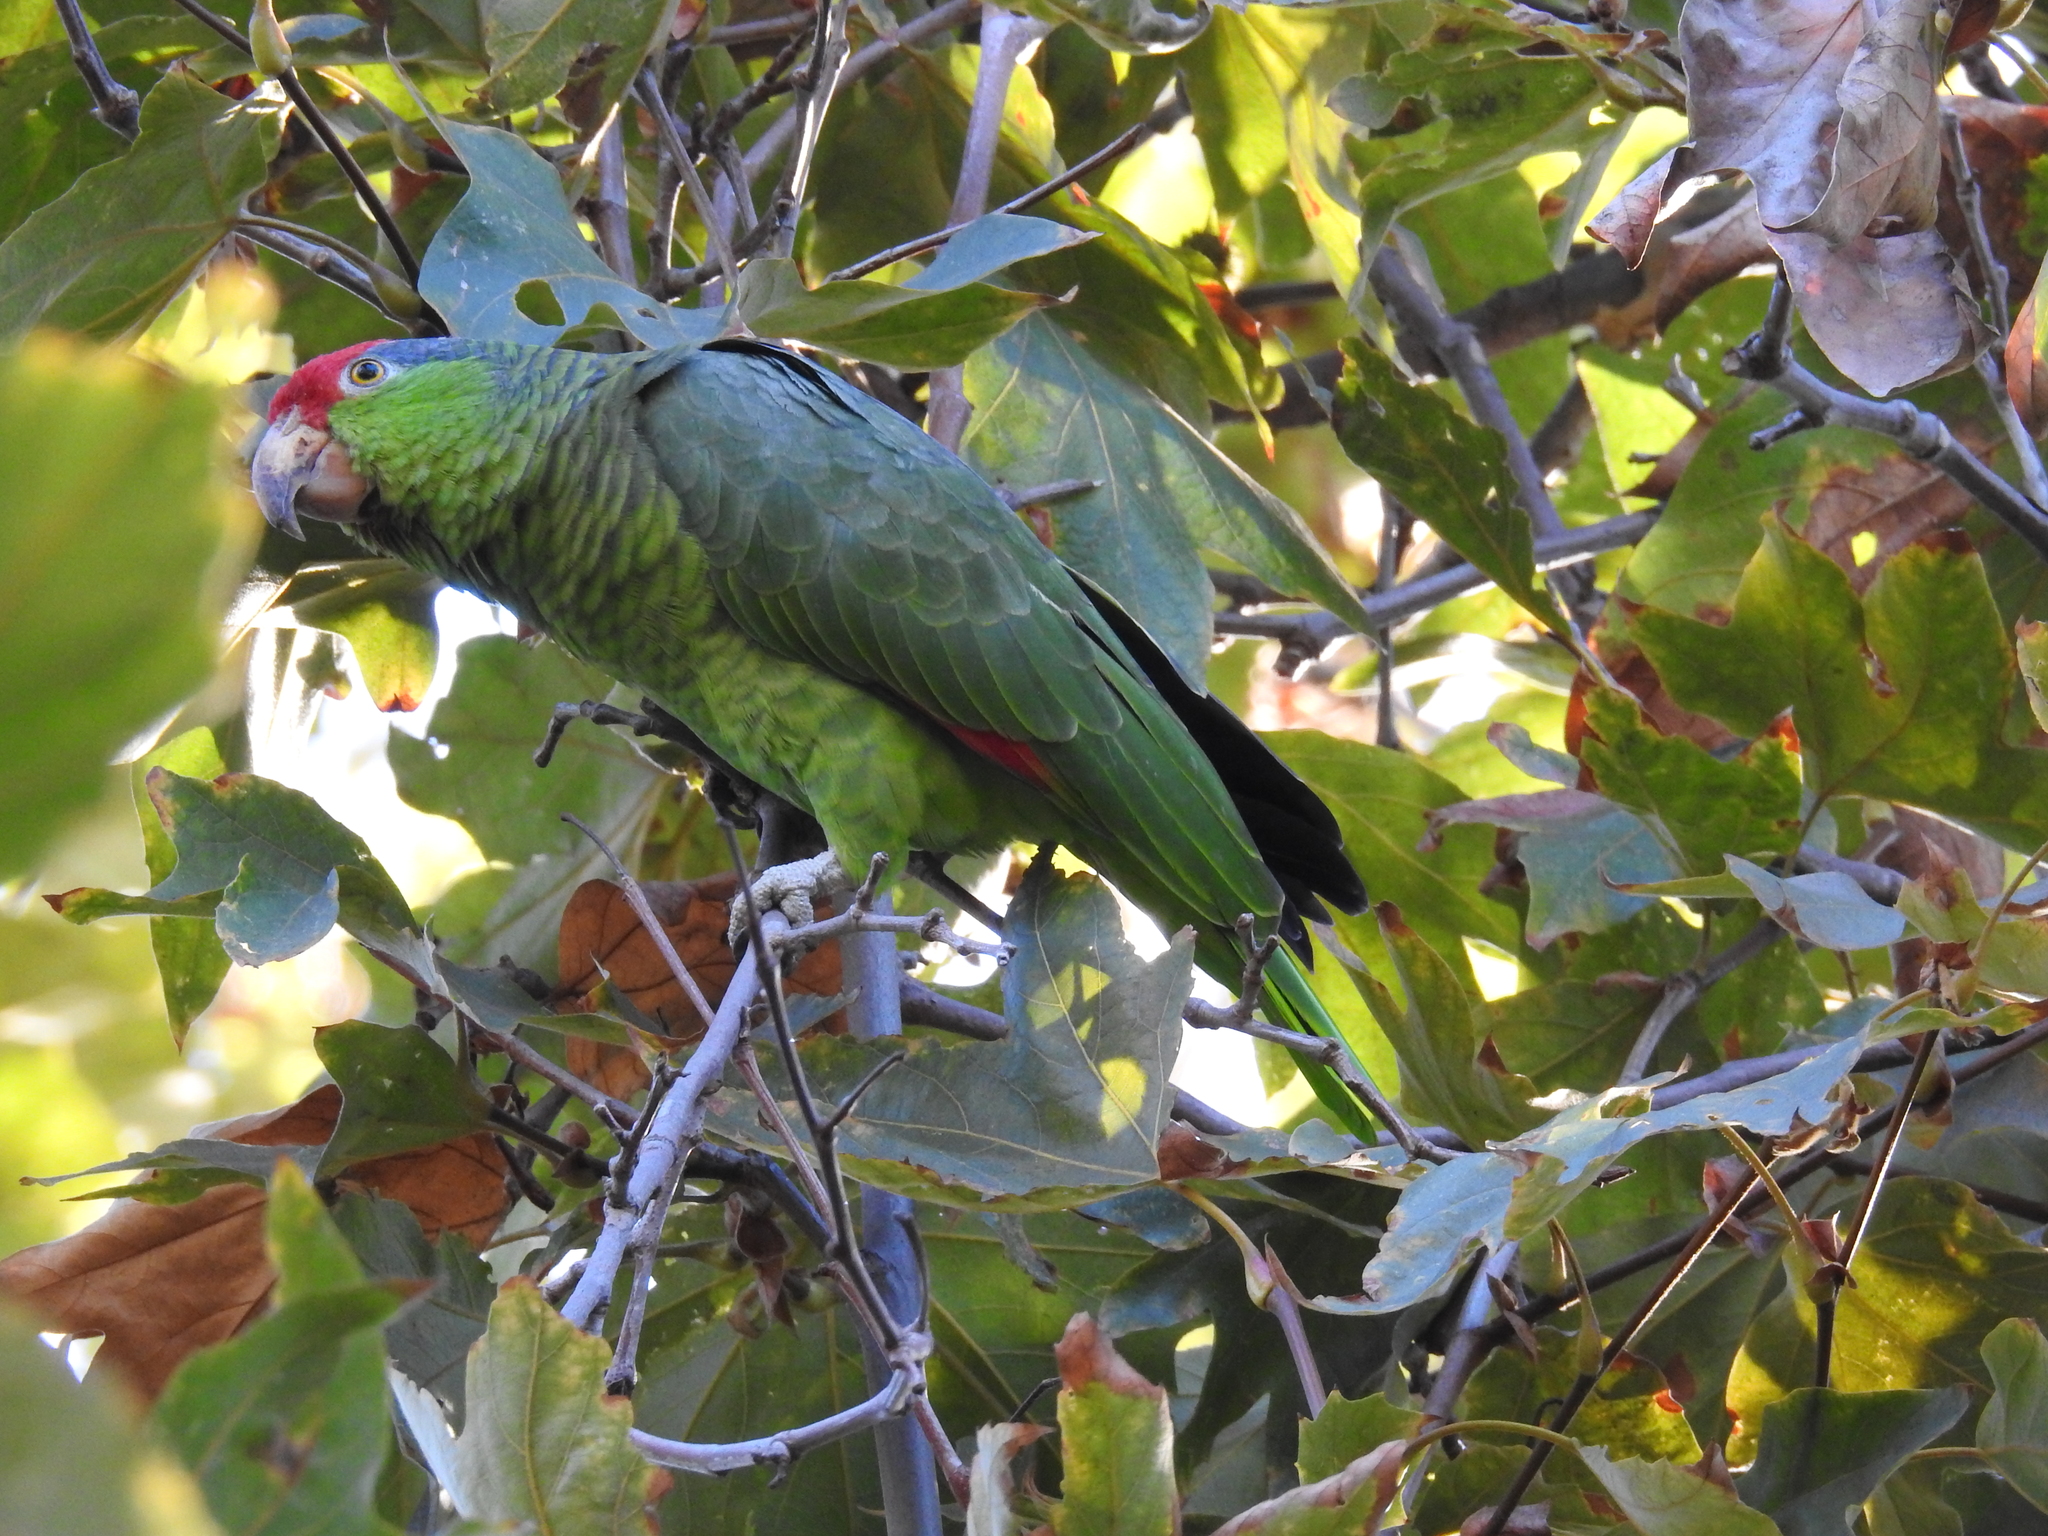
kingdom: Animalia
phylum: Chordata
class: Aves
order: Psittaciformes
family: Psittacidae
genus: Amazona
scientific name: Amazona viridigenalis
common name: Red-crowned amazon
